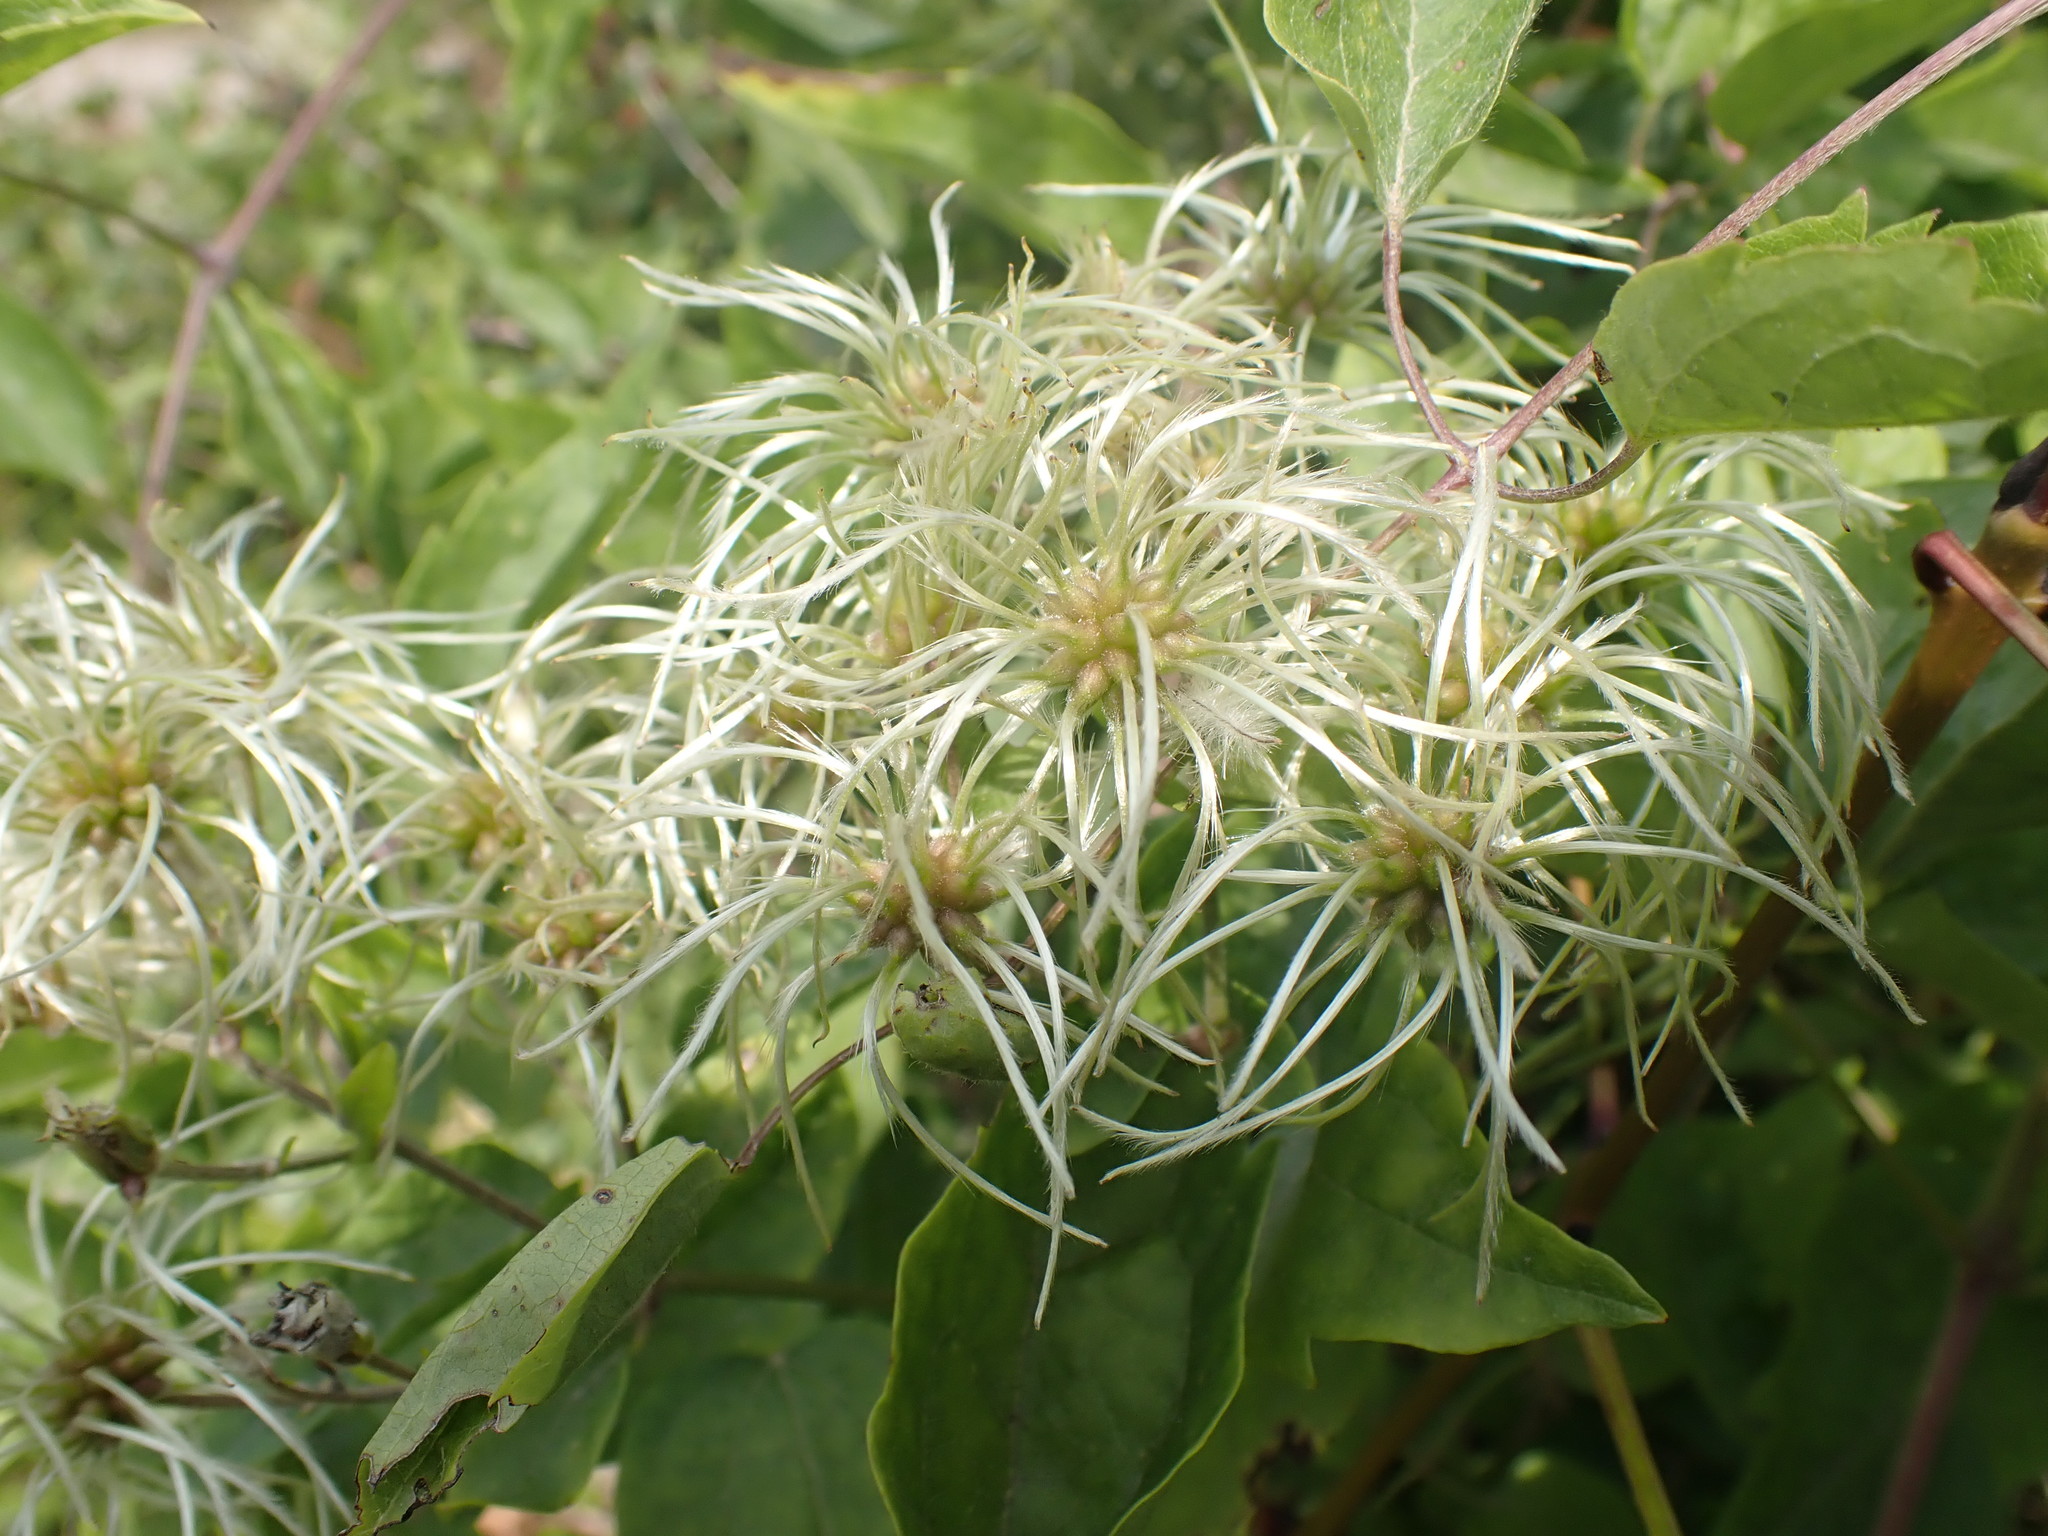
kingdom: Plantae
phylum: Tracheophyta
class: Magnoliopsida
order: Ranunculales
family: Ranunculaceae
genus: Clematis
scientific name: Clematis vitalba
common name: Evergreen clematis
